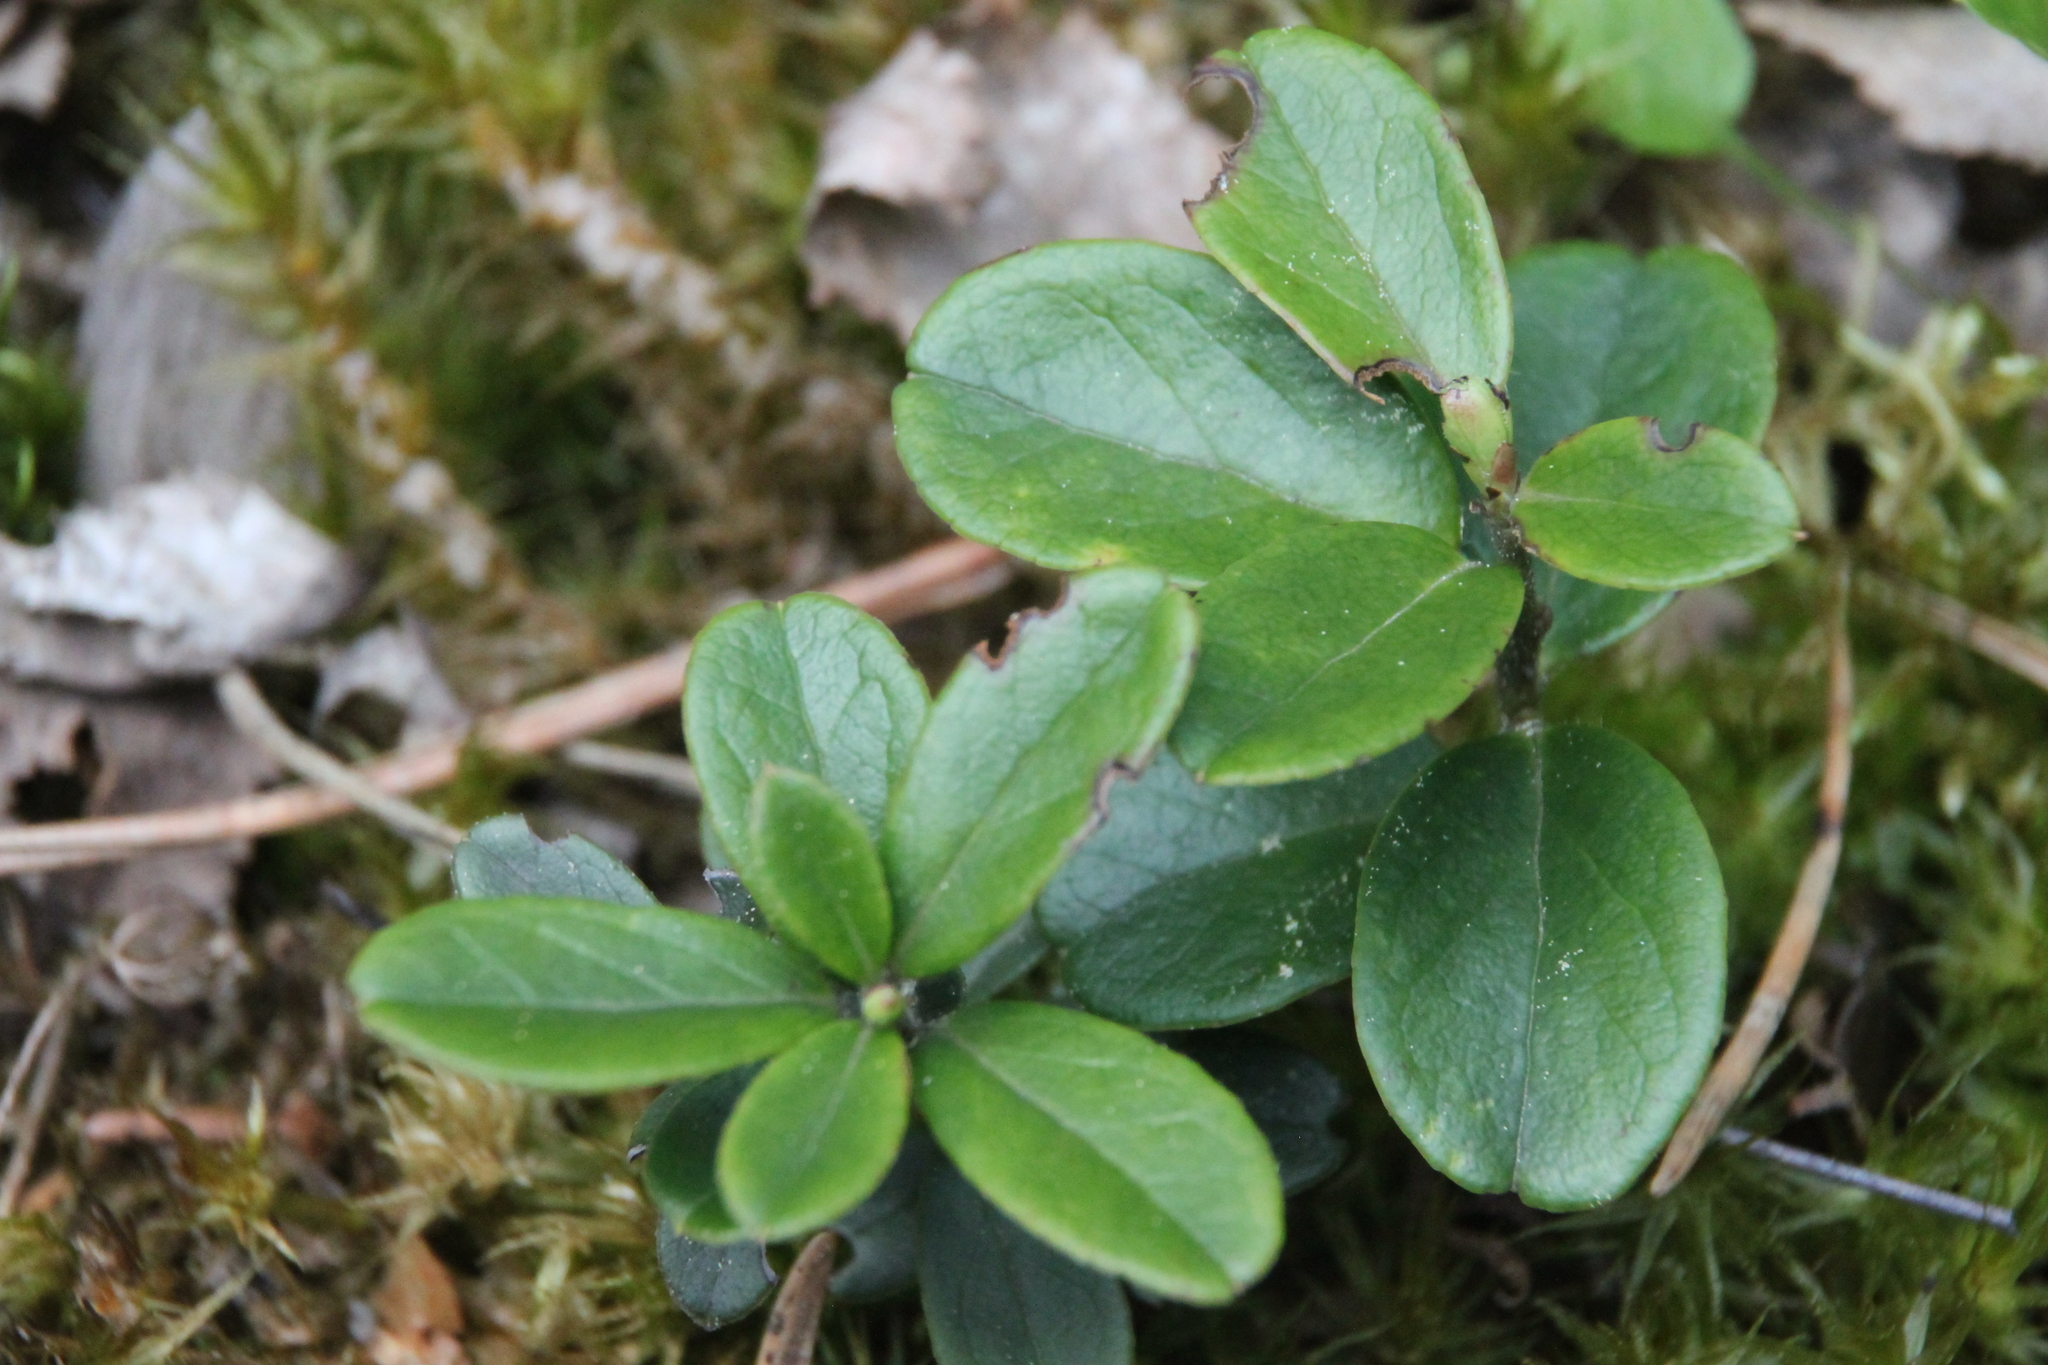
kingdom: Plantae
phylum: Tracheophyta
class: Magnoliopsida
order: Ericales
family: Ericaceae
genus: Vaccinium
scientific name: Vaccinium vitis-idaea
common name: Cowberry
